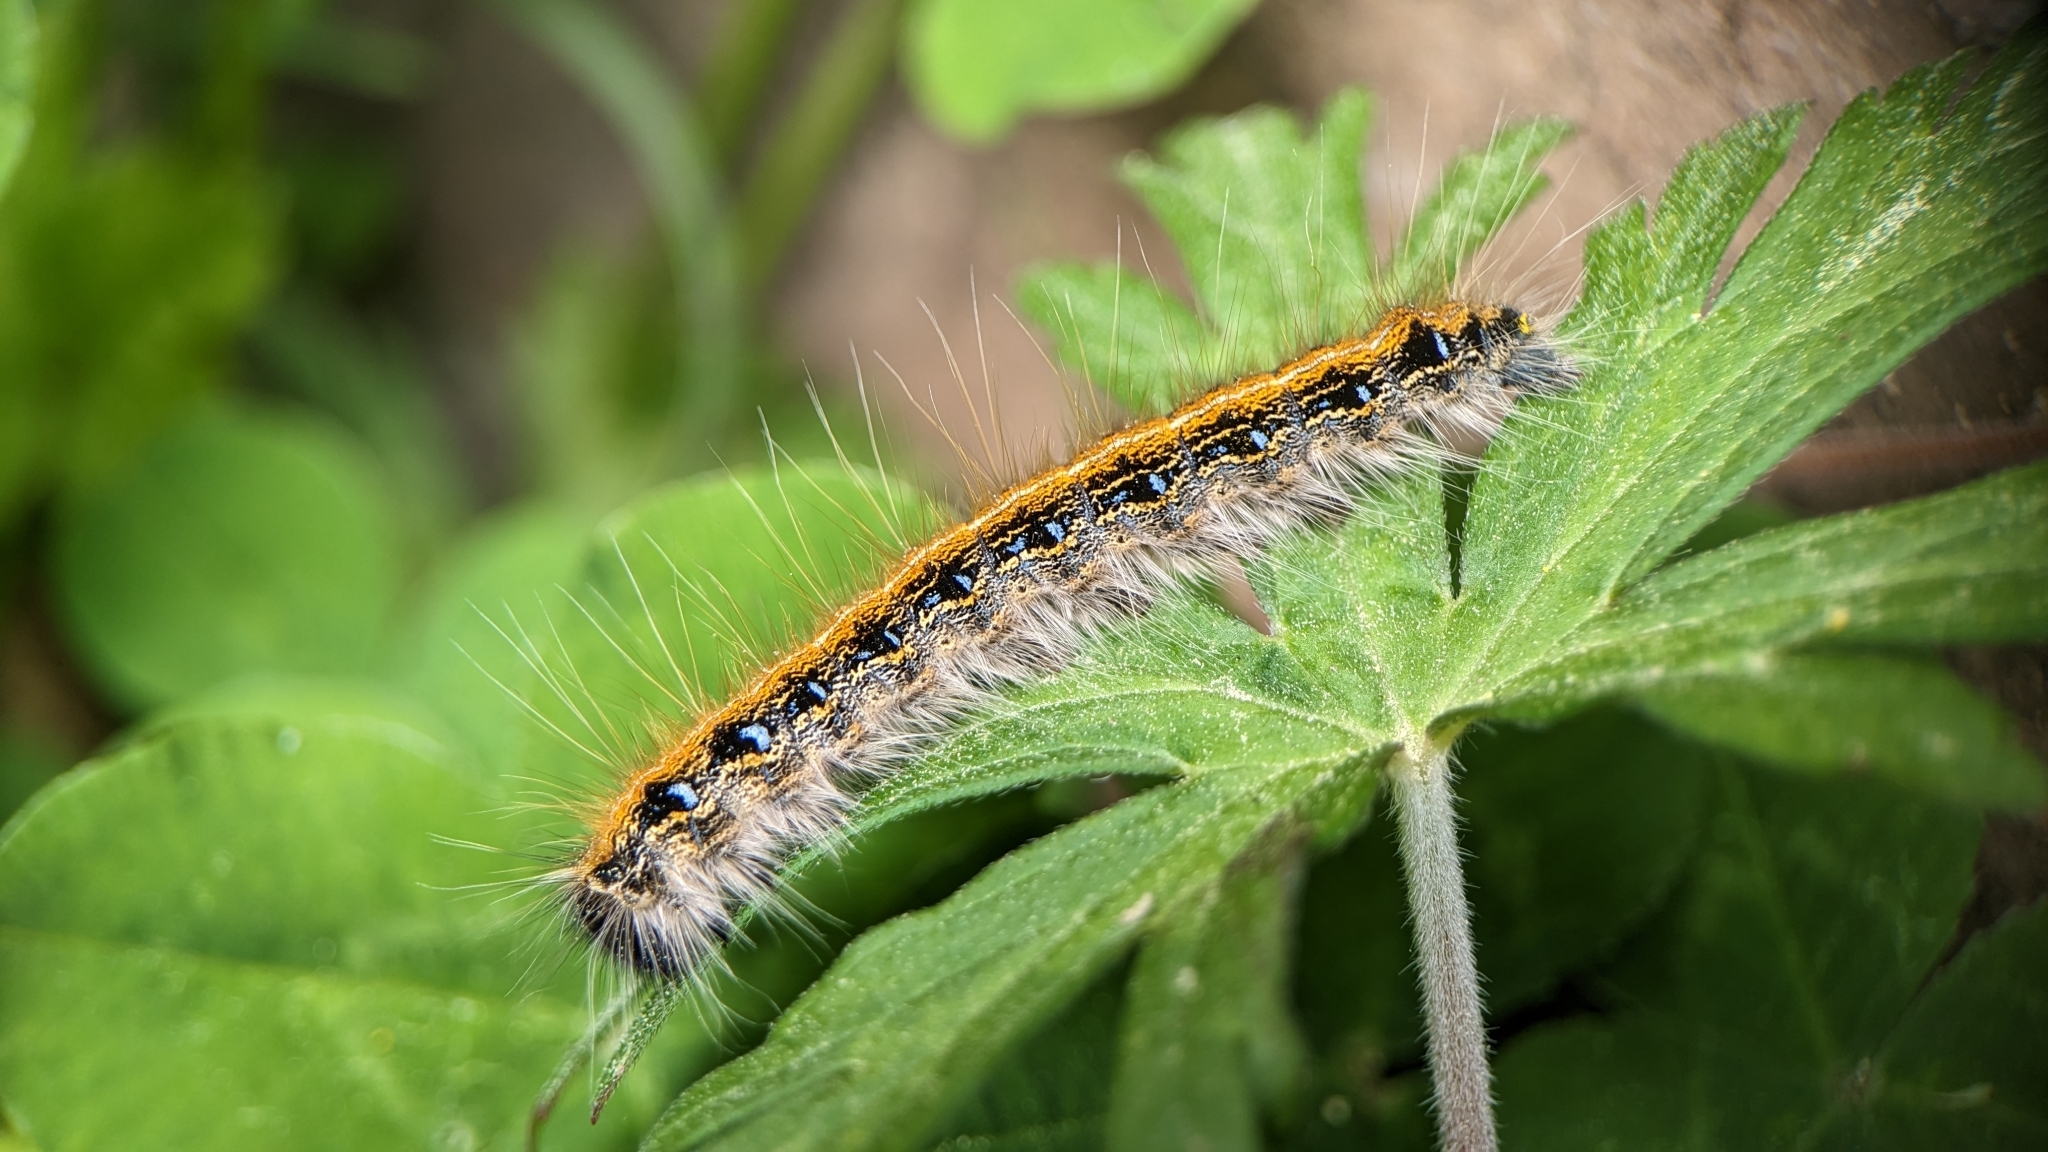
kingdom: Animalia
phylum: Arthropoda
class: Insecta
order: Lepidoptera
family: Lasiocampidae
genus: Malacosoma
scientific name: Malacosoma americana
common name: Eastern tent caterpillar moth
